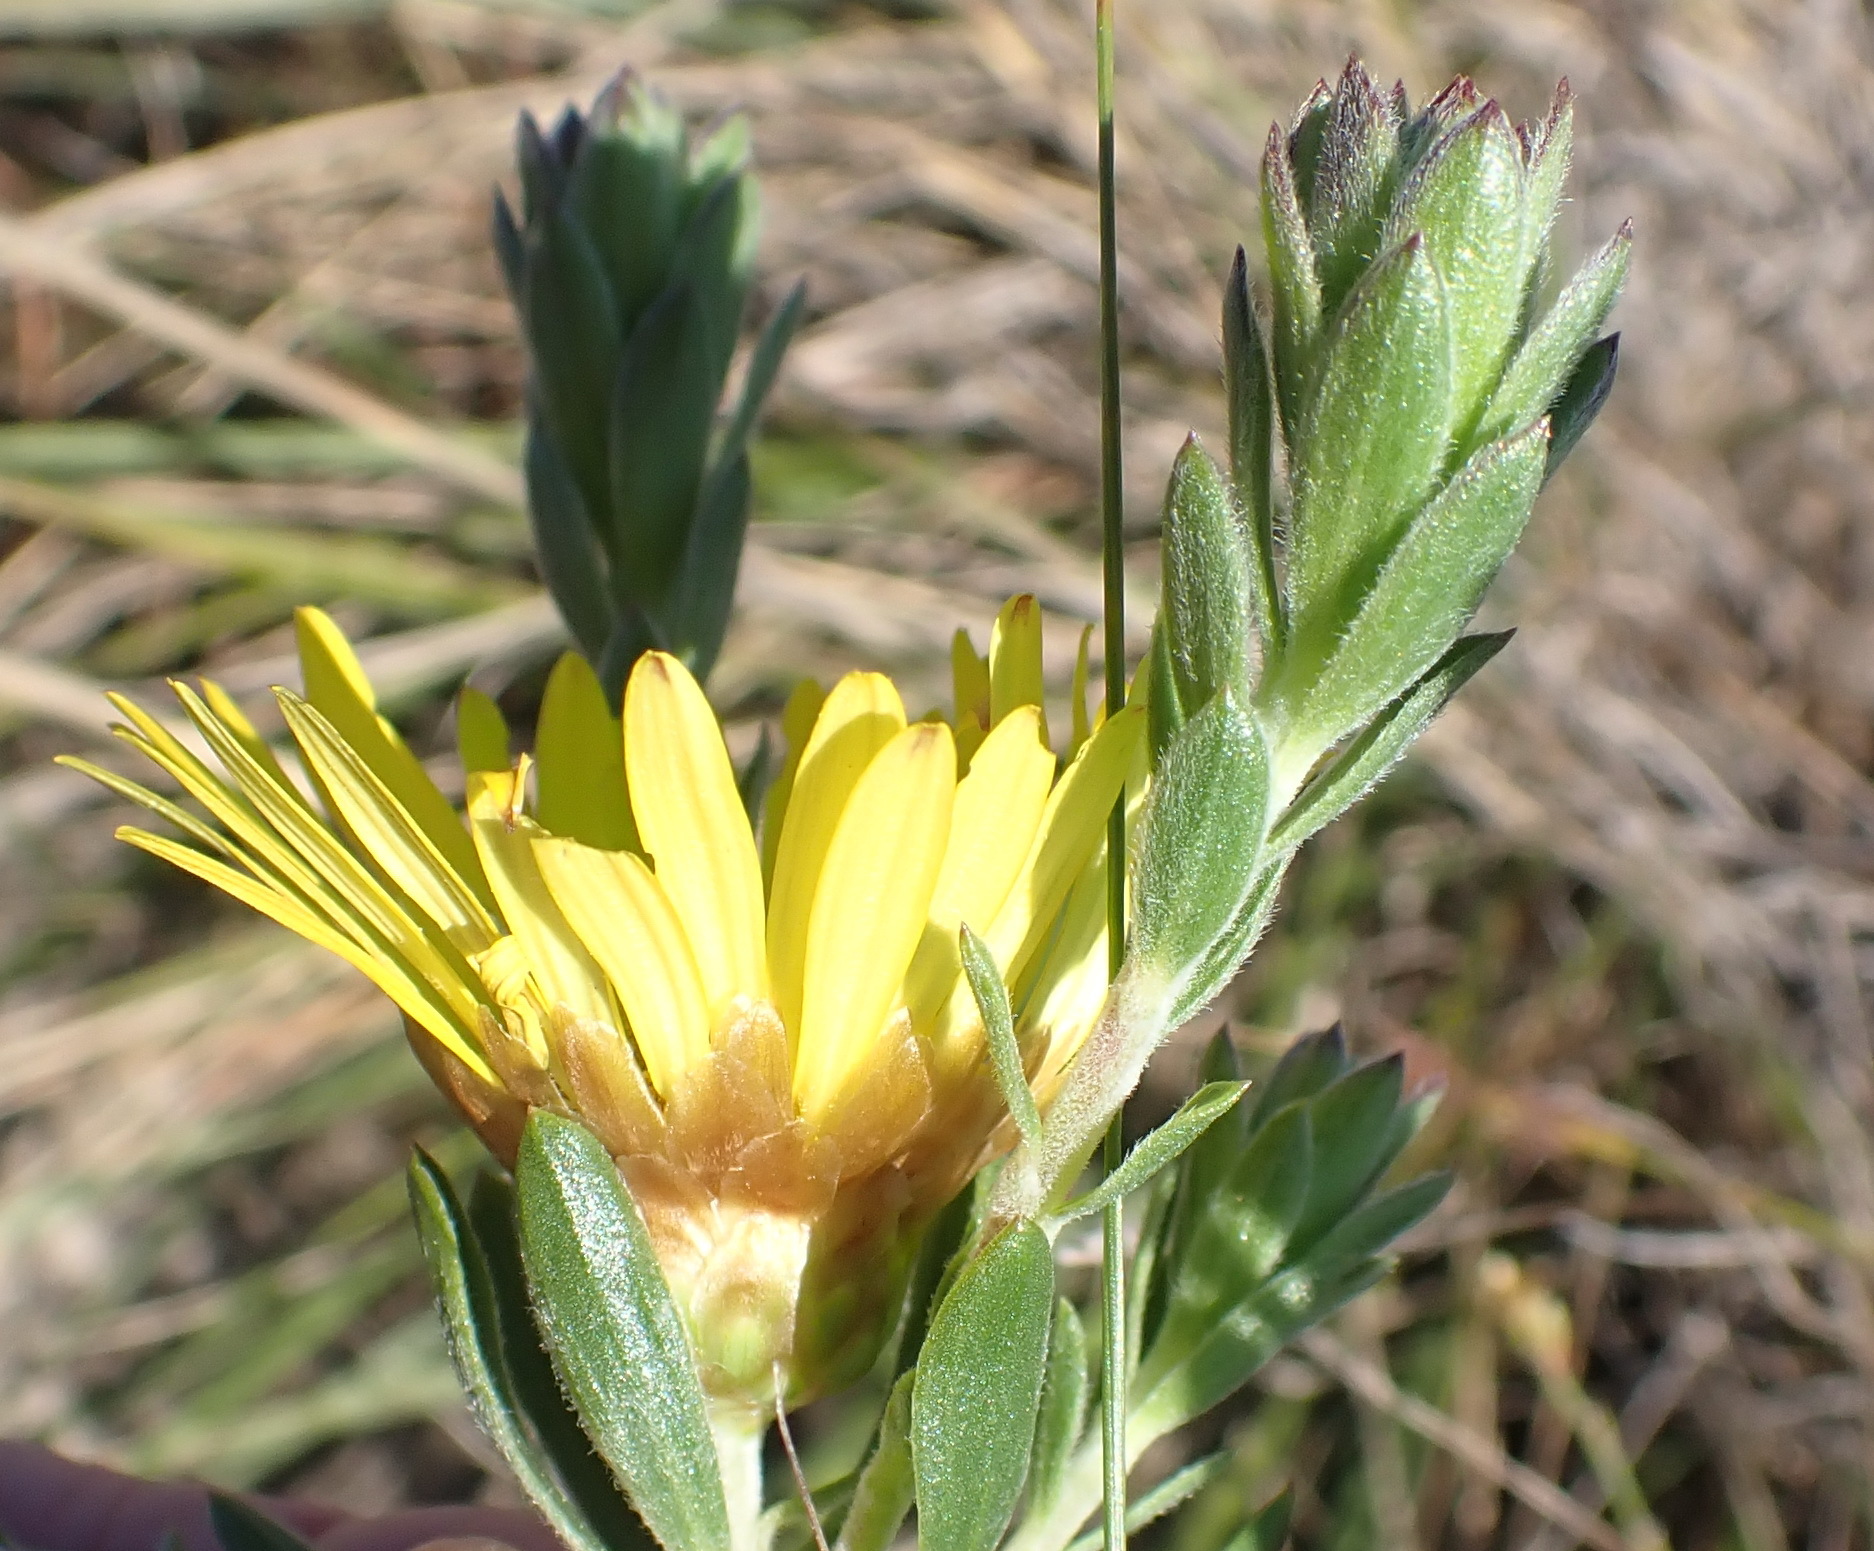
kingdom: Plantae
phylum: Tracheophyta
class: Magnoliopsida
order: Asterales
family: Asteraceae
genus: Oedera
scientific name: Oedera calycina
